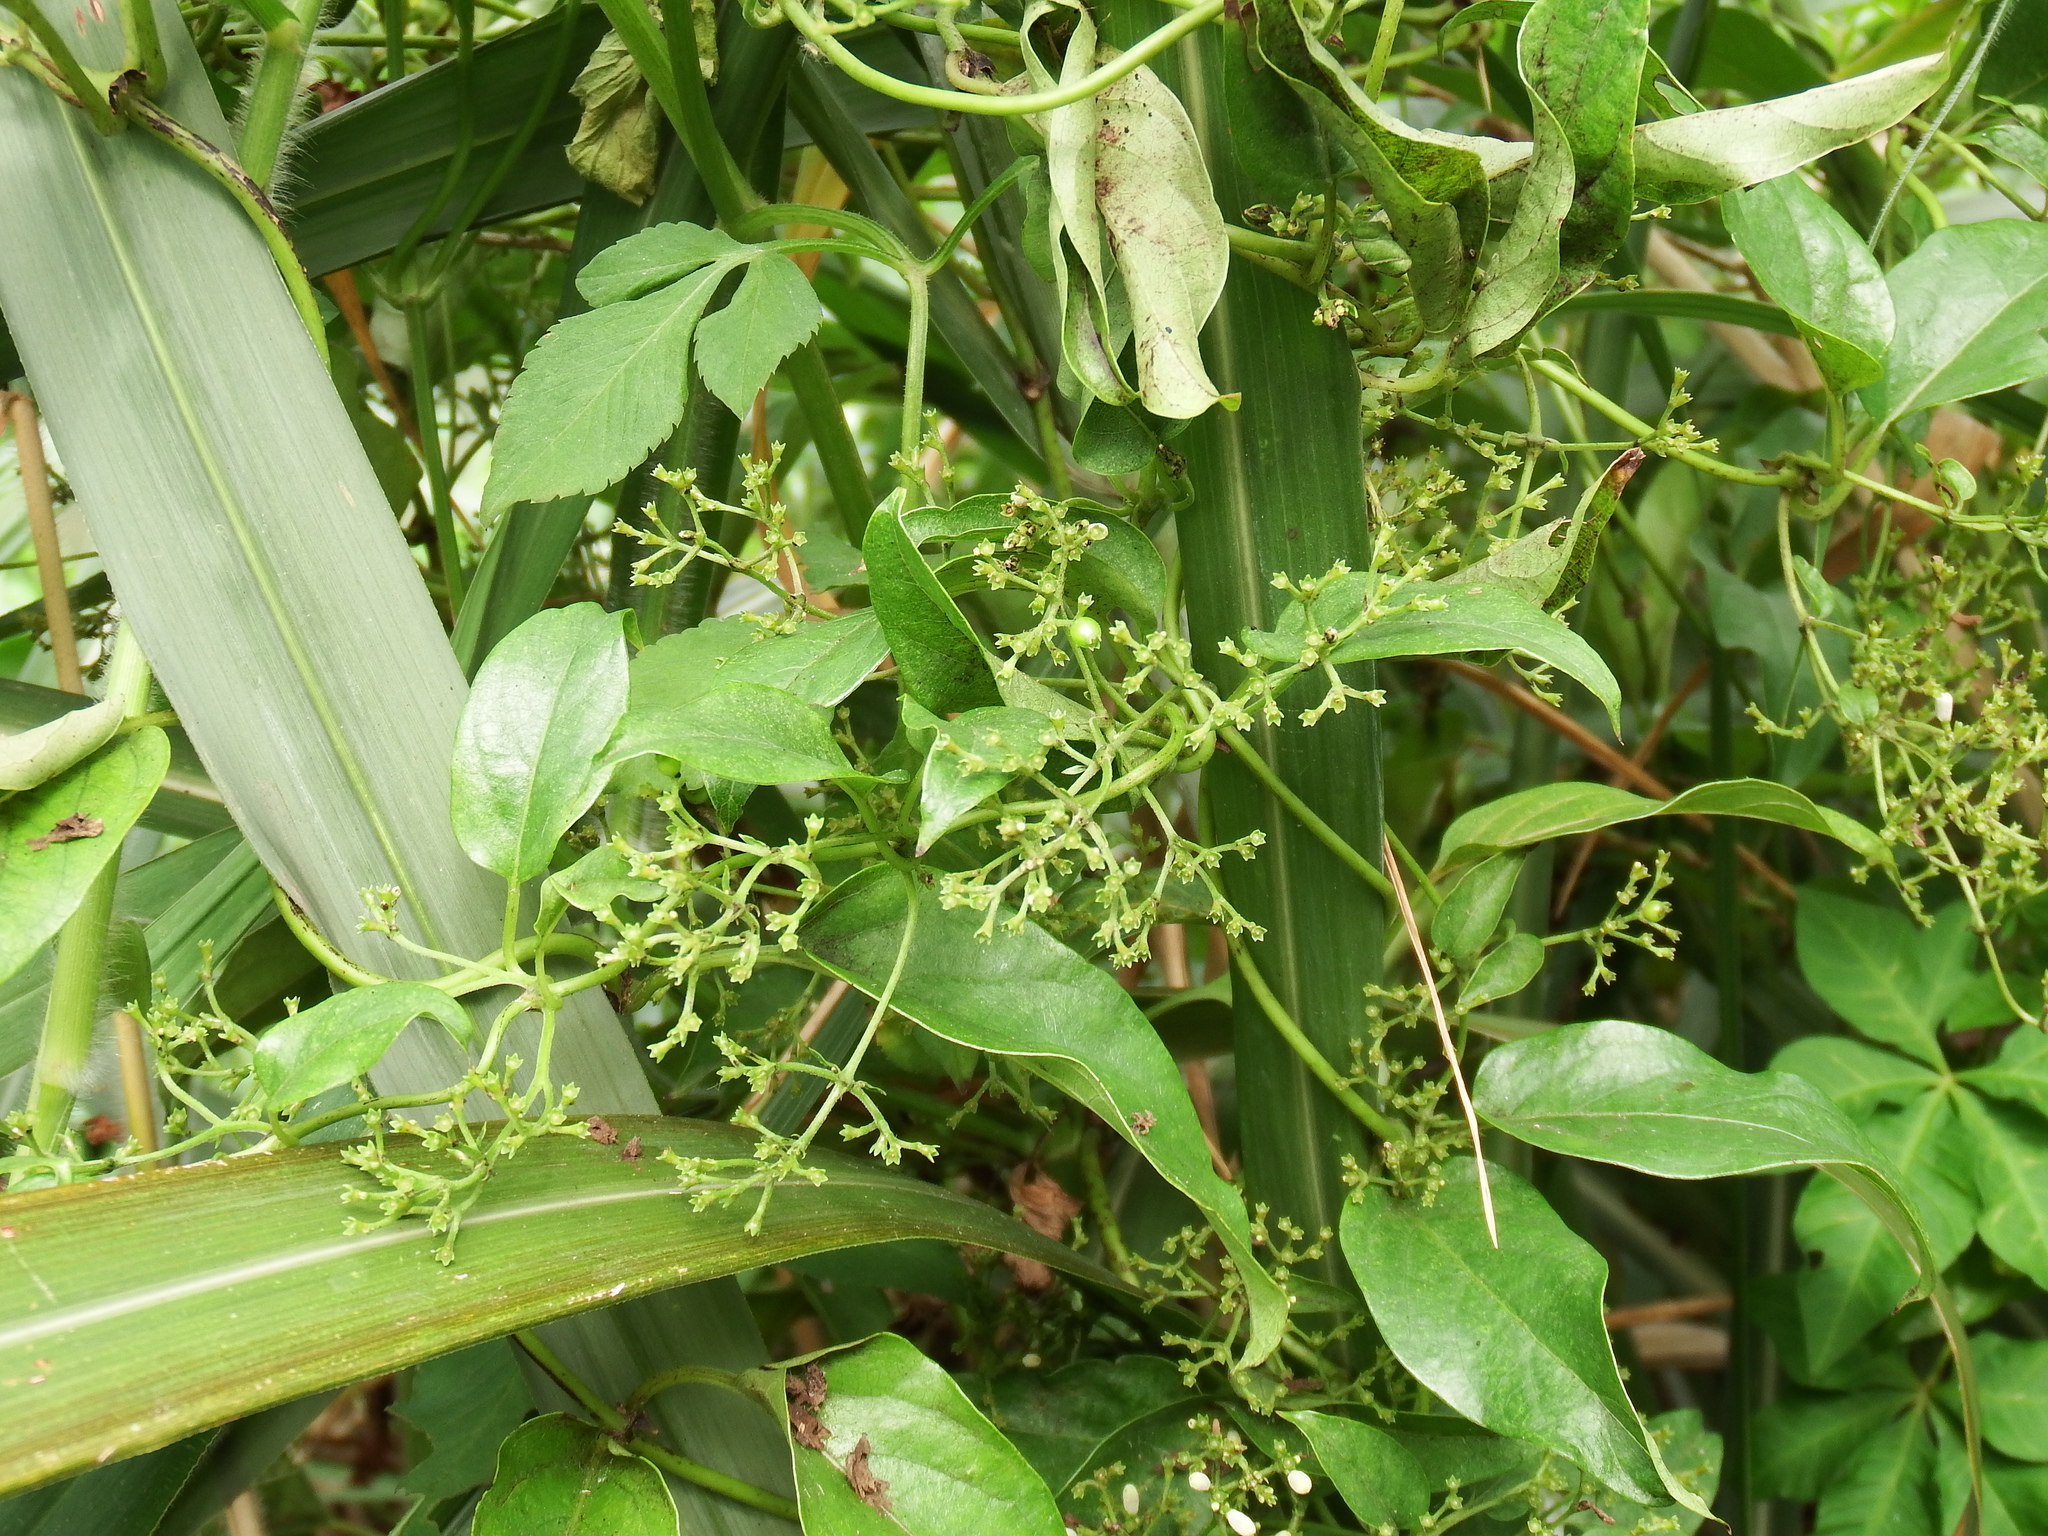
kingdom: Plantae
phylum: Tracheophyta
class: Magnoliopsida
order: Gentianales
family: Rubiaceae
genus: Paederia
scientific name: Paederia foetida
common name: Stinkvine
